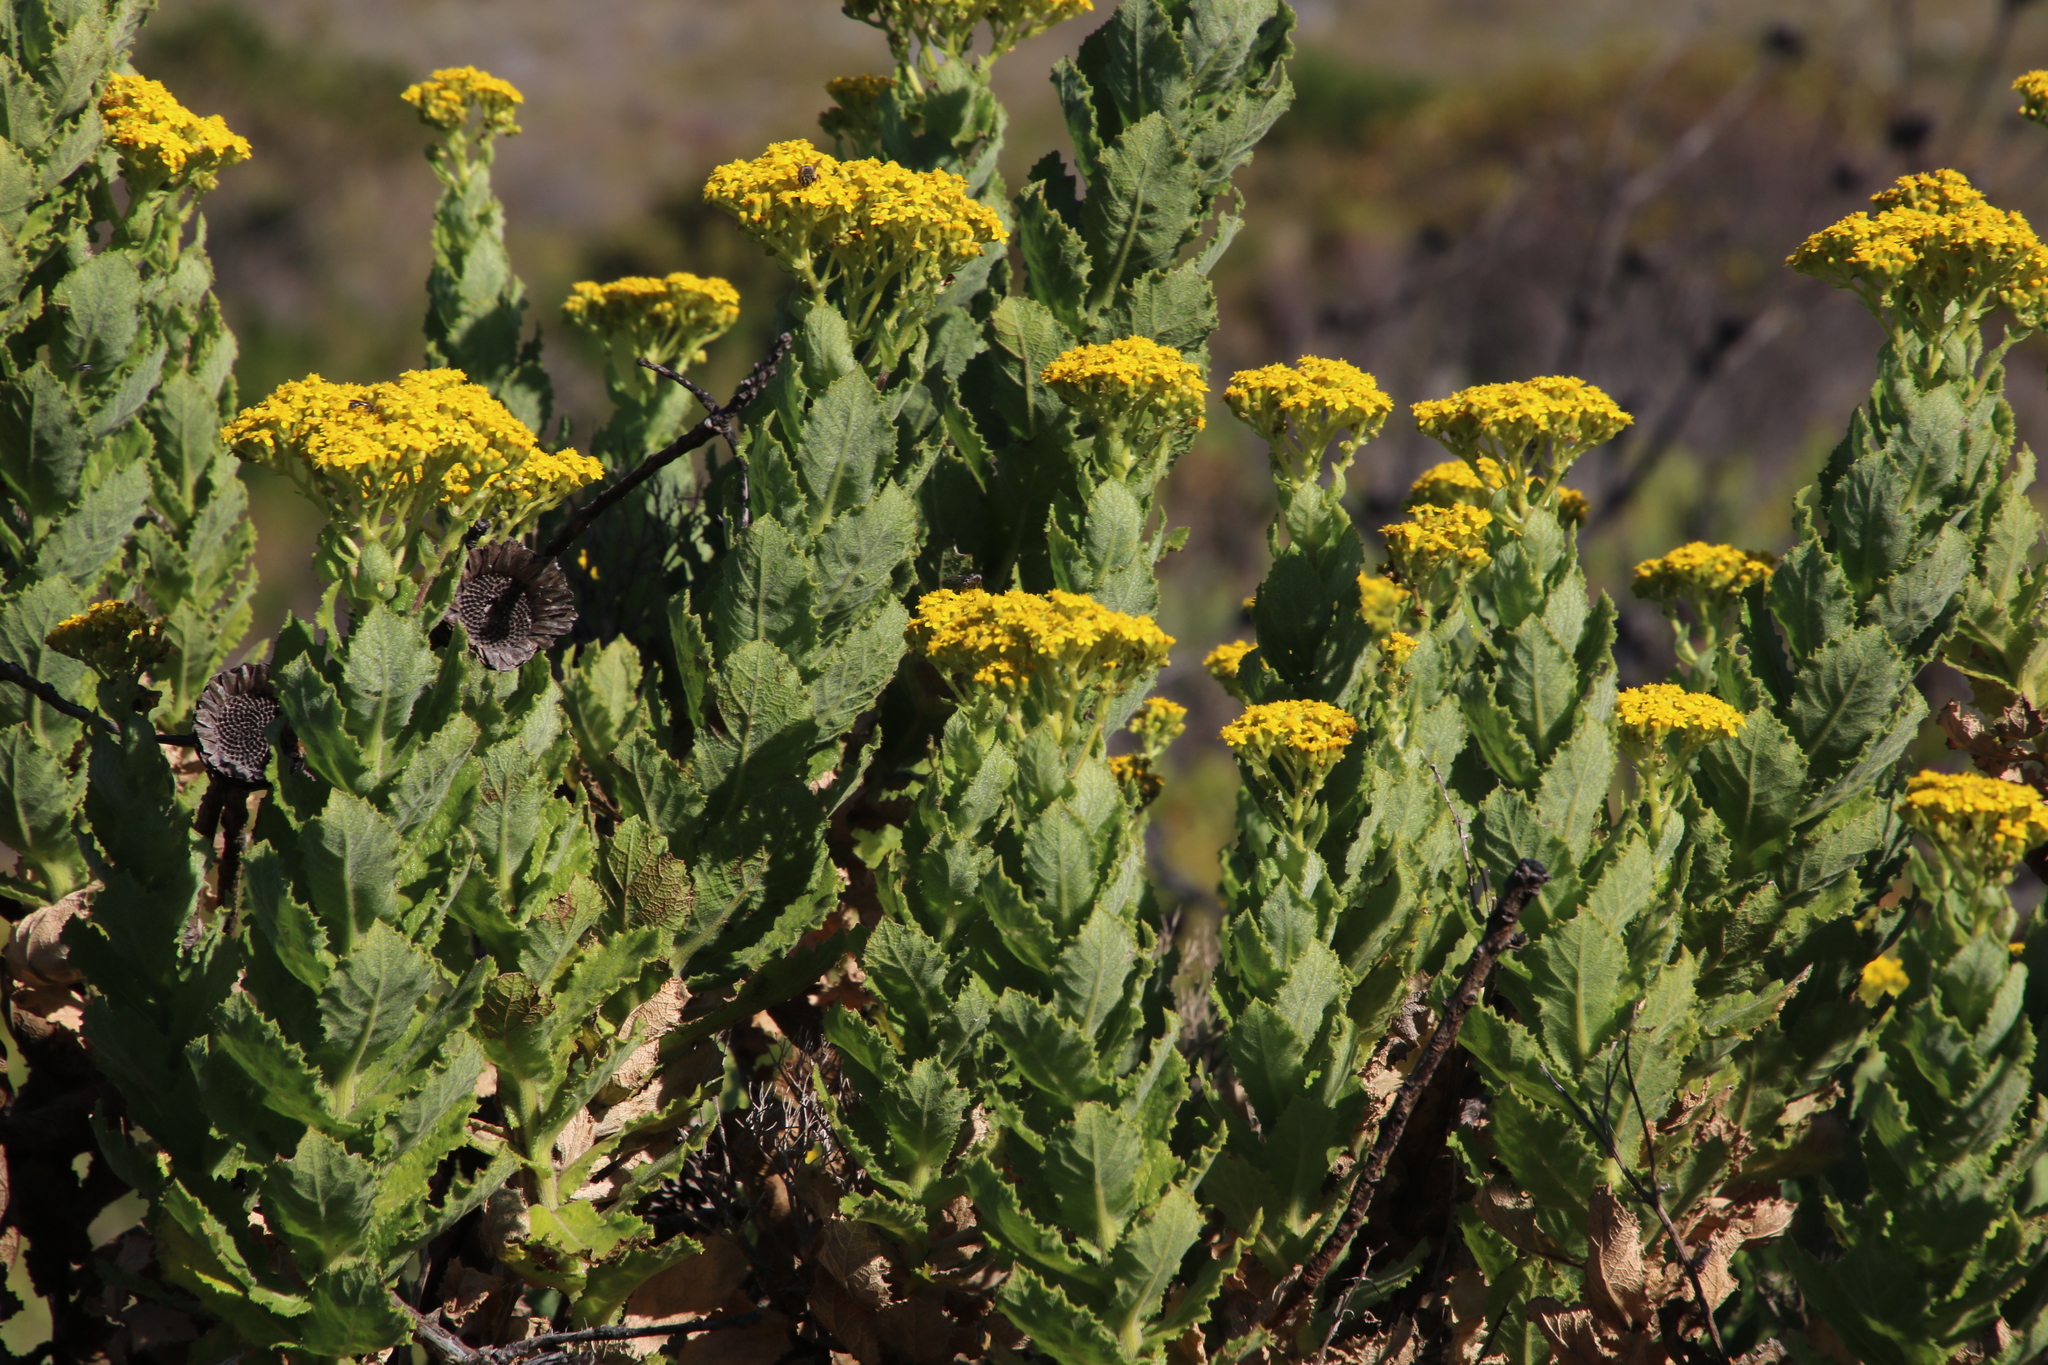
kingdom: Plantae
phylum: Tracheophyta
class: Magnoliopsida
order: Asterales
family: Asteraceae
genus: Senecio
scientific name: Senecio rigidus
